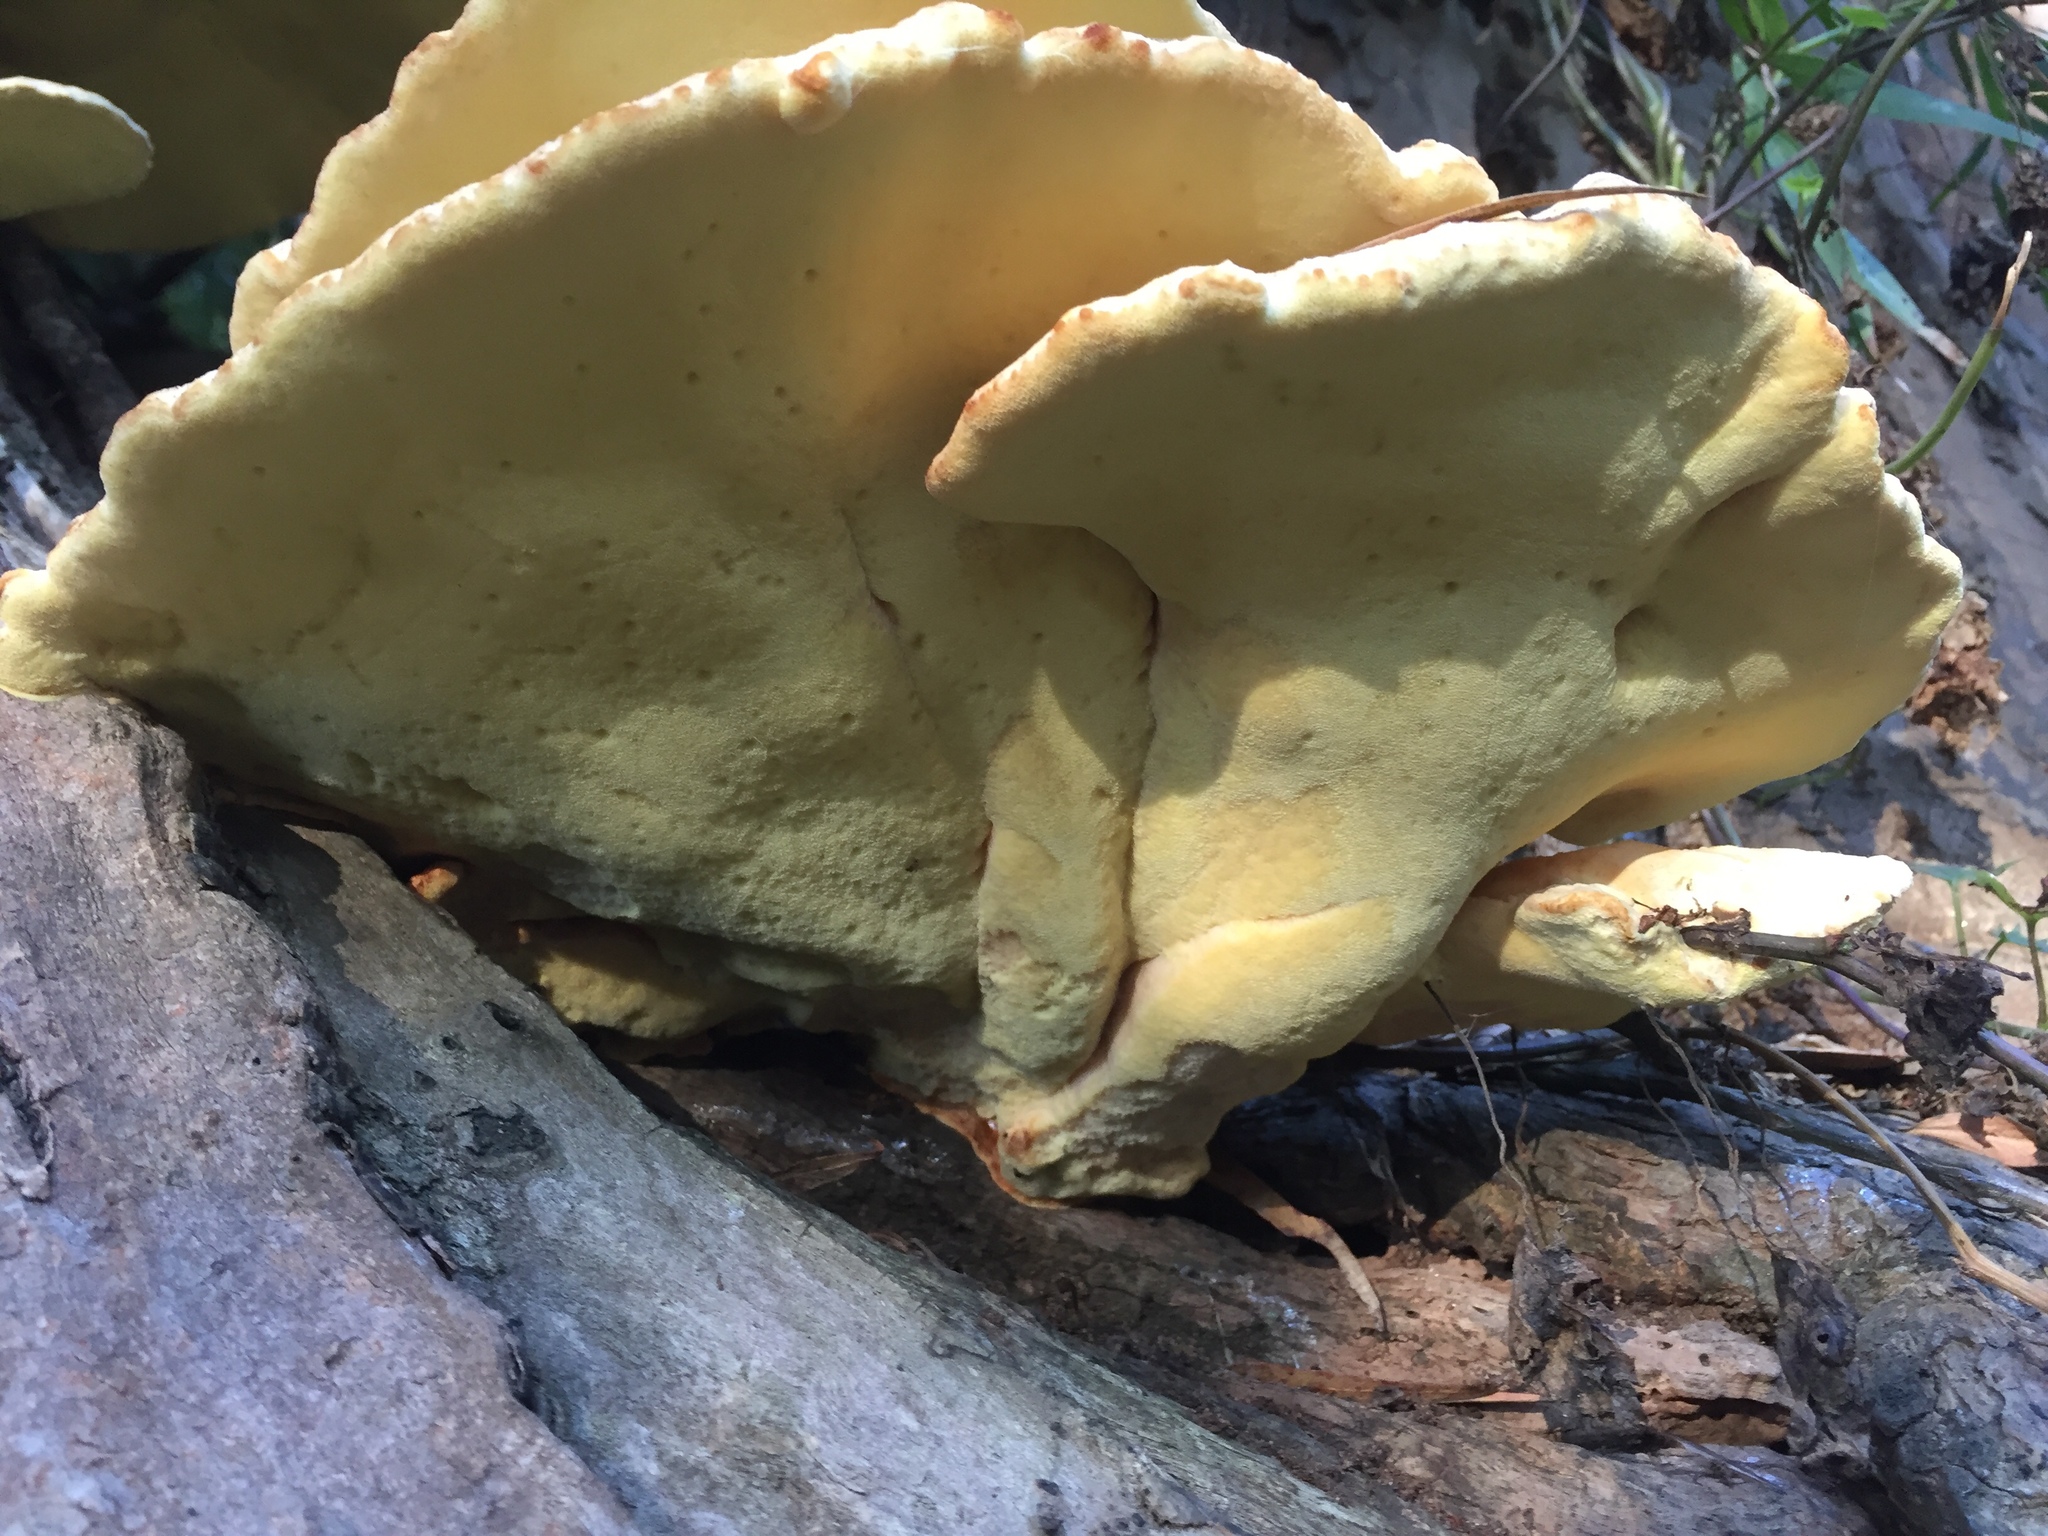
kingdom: Fungi
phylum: Basidiomycota
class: Agaricomycetes
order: Polyporales
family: Laetiporaceae
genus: Laetiporus
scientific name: Laetiporus gilbertsonii
